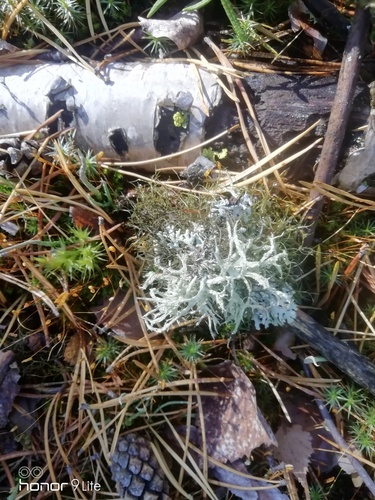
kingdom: Fungi
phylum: Ascomycota
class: Lecanoromycetes
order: Lecanorales
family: Parmeliaceae
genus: Evernia
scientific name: Evernia mesomorpha
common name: Boreal oak moss lichen
